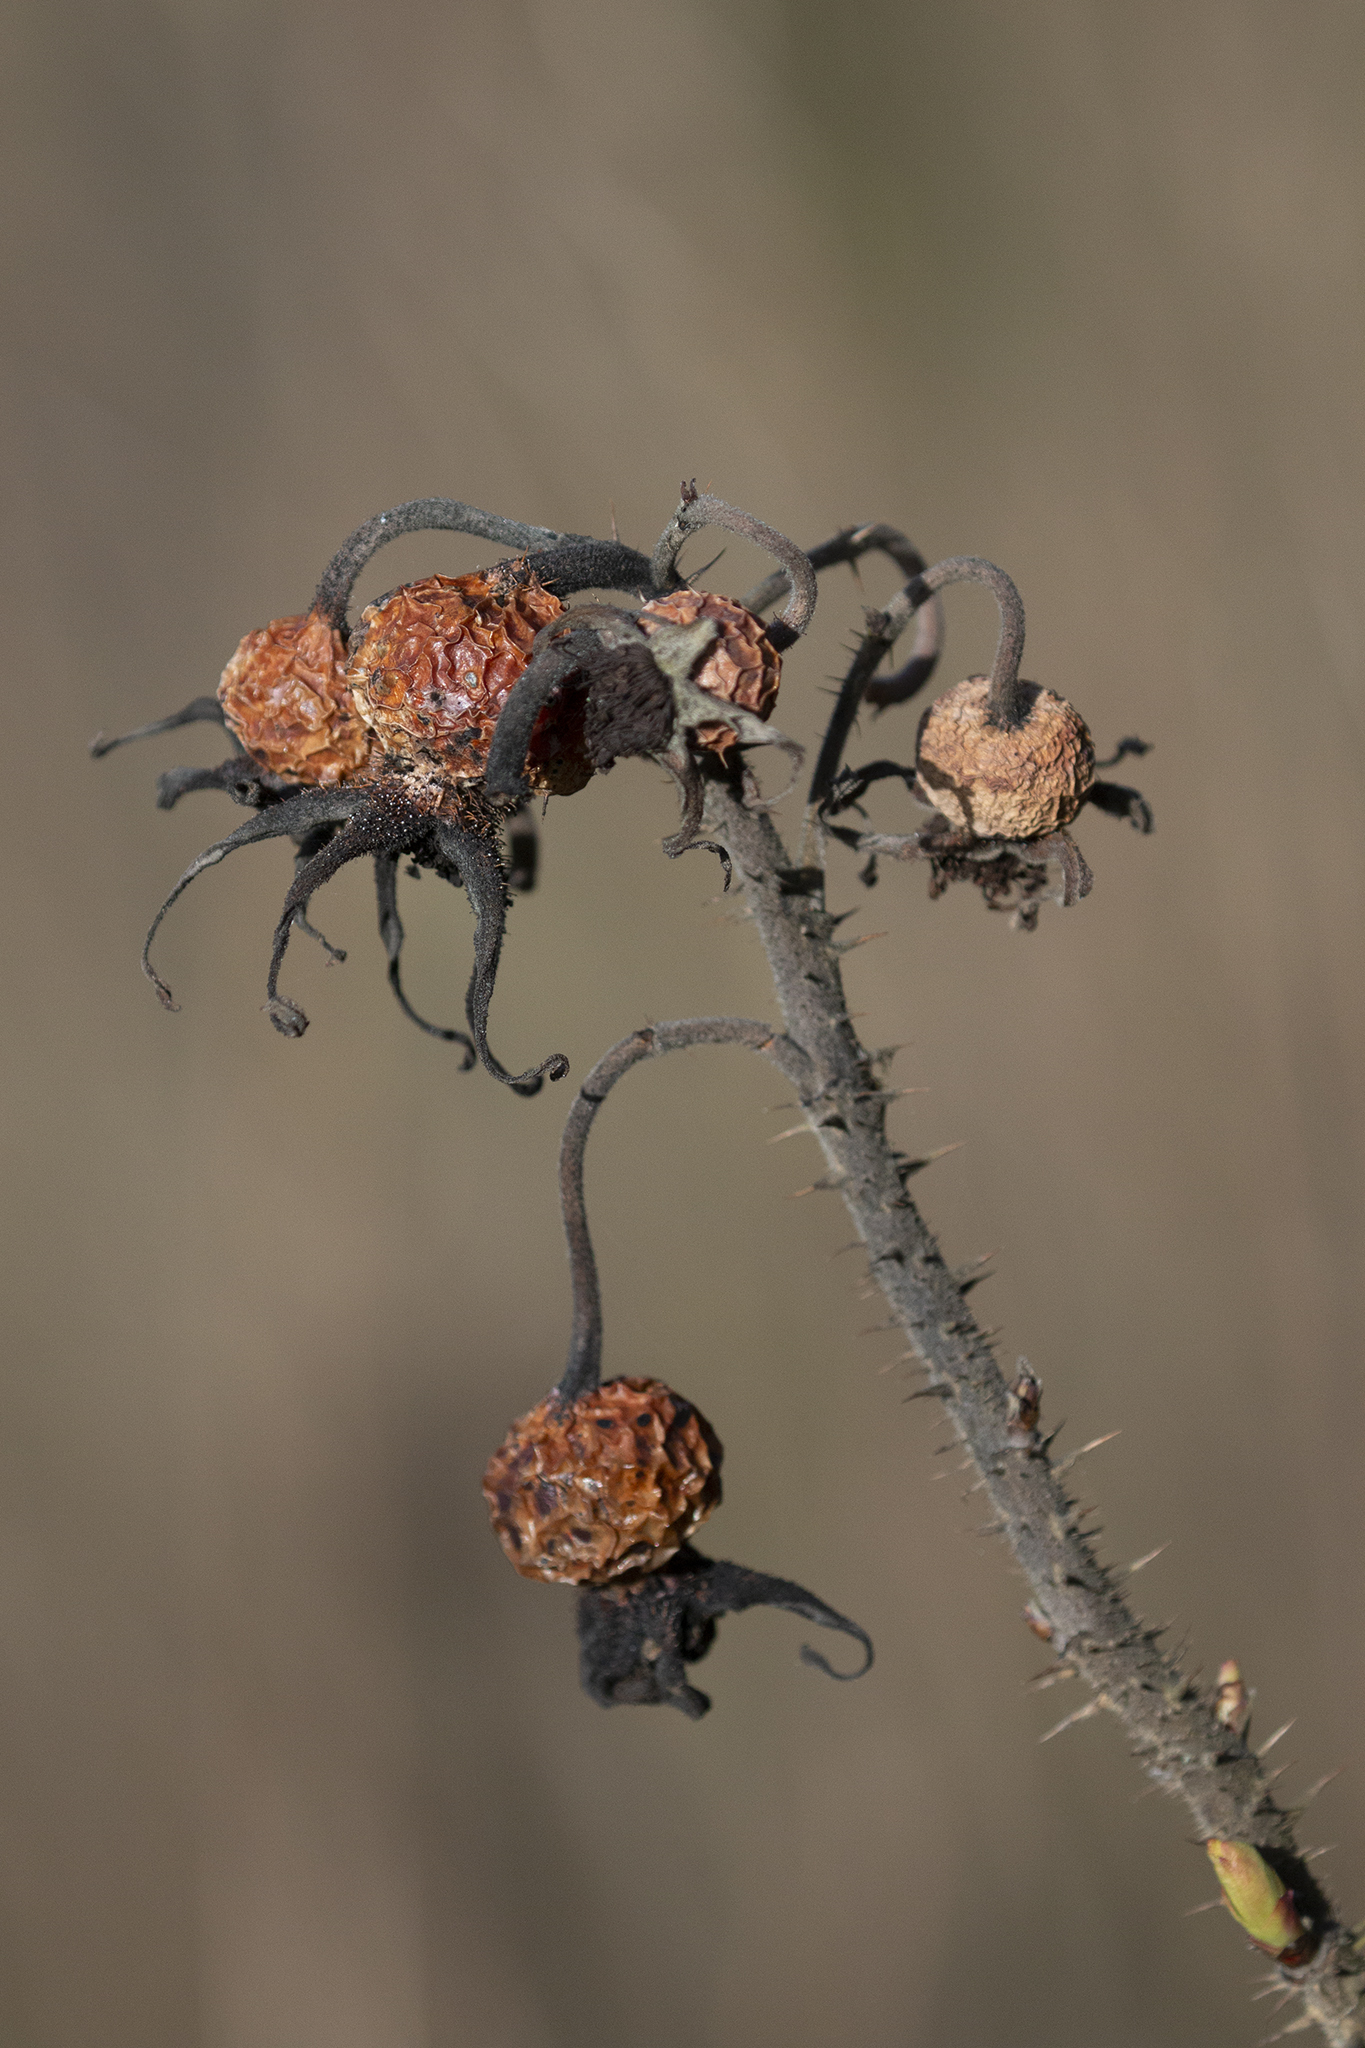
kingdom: Plantae
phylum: Tracheophyta
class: Magnoliopsida
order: Rosales
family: Rosaceae
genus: Rosa
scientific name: Rosa rugosa
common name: Japanese rose
